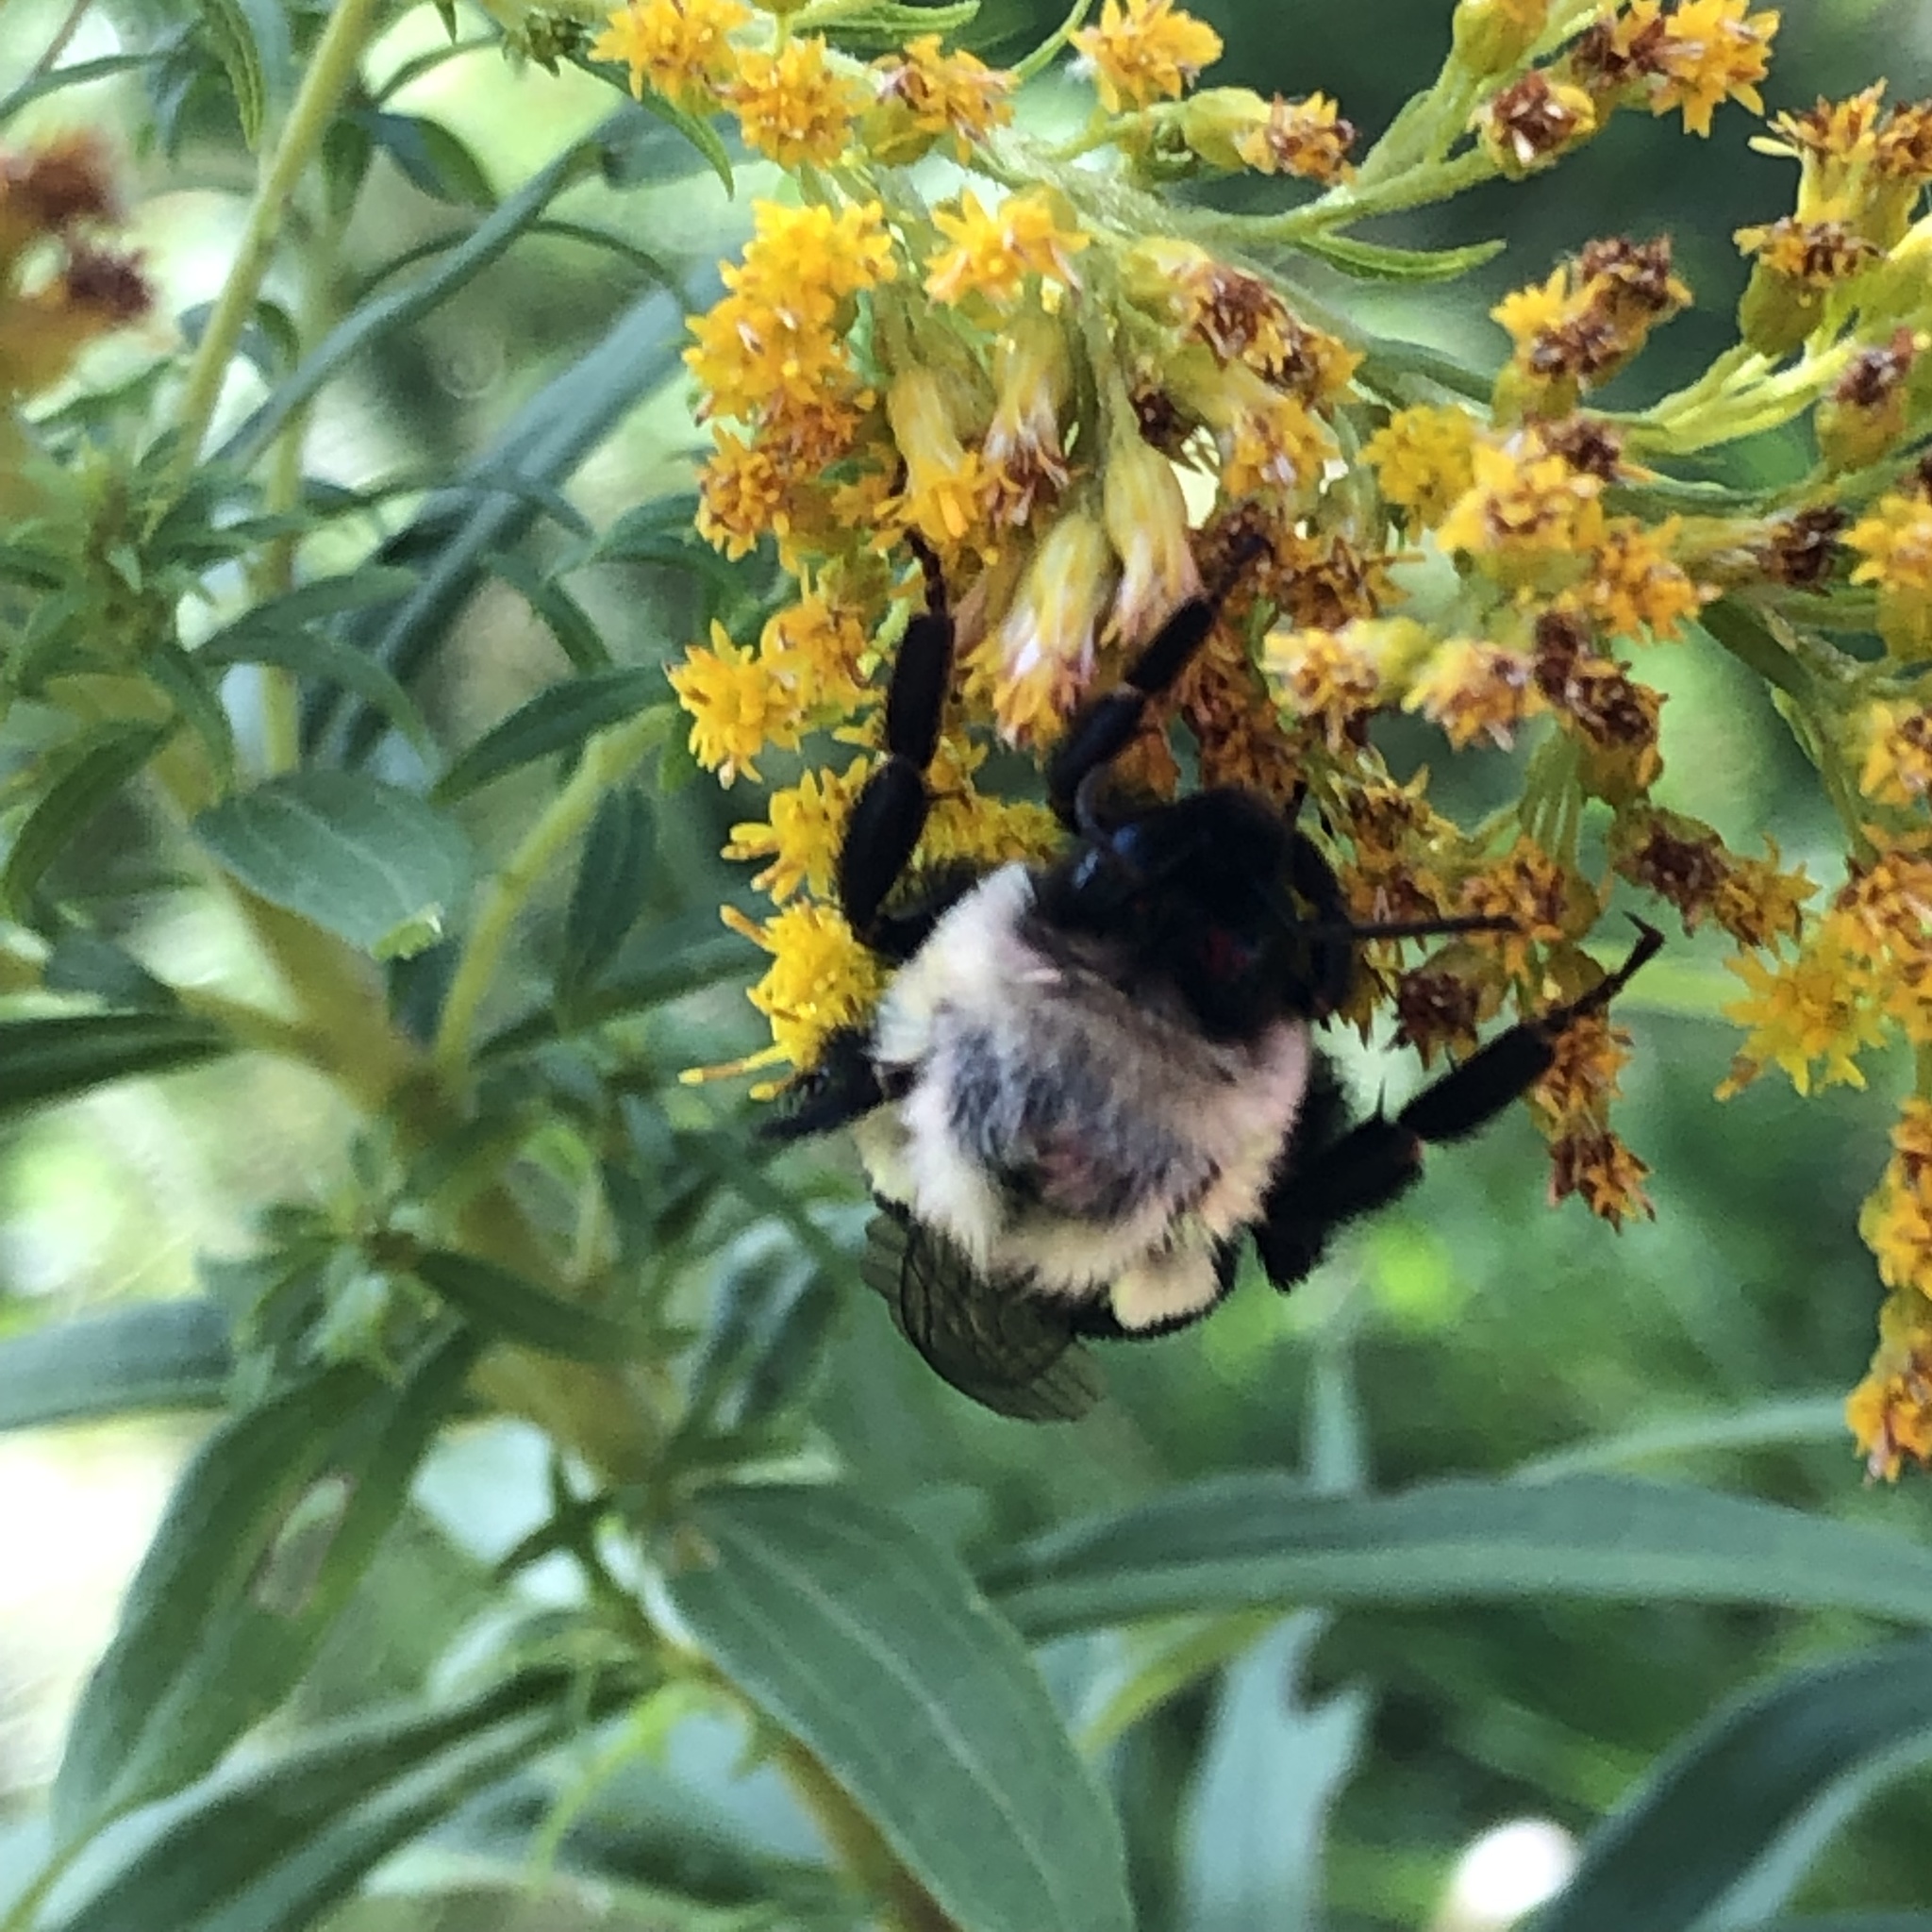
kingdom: Animalia
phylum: Arthropoda
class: Insecta
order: Hymenoptera
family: Apidae
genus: Bombus
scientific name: Bombus impatiens
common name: Common eastern bumble bee
